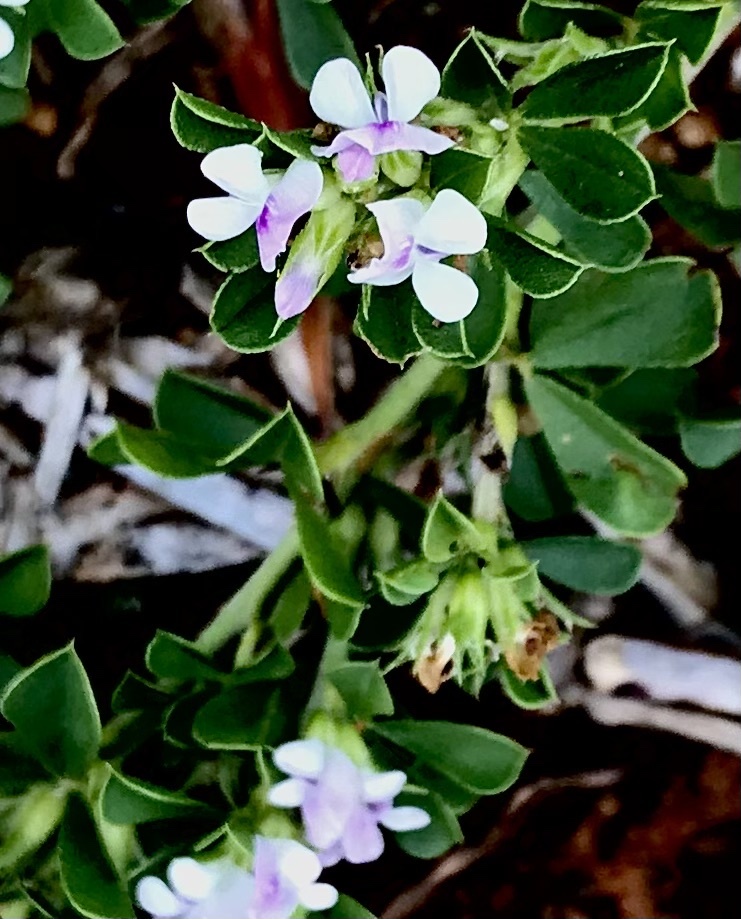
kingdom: Plantae
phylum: Tracheophyta
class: Magnoliopsida
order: Fabales
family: Fabaceae
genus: Psoralea
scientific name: Psoralea
